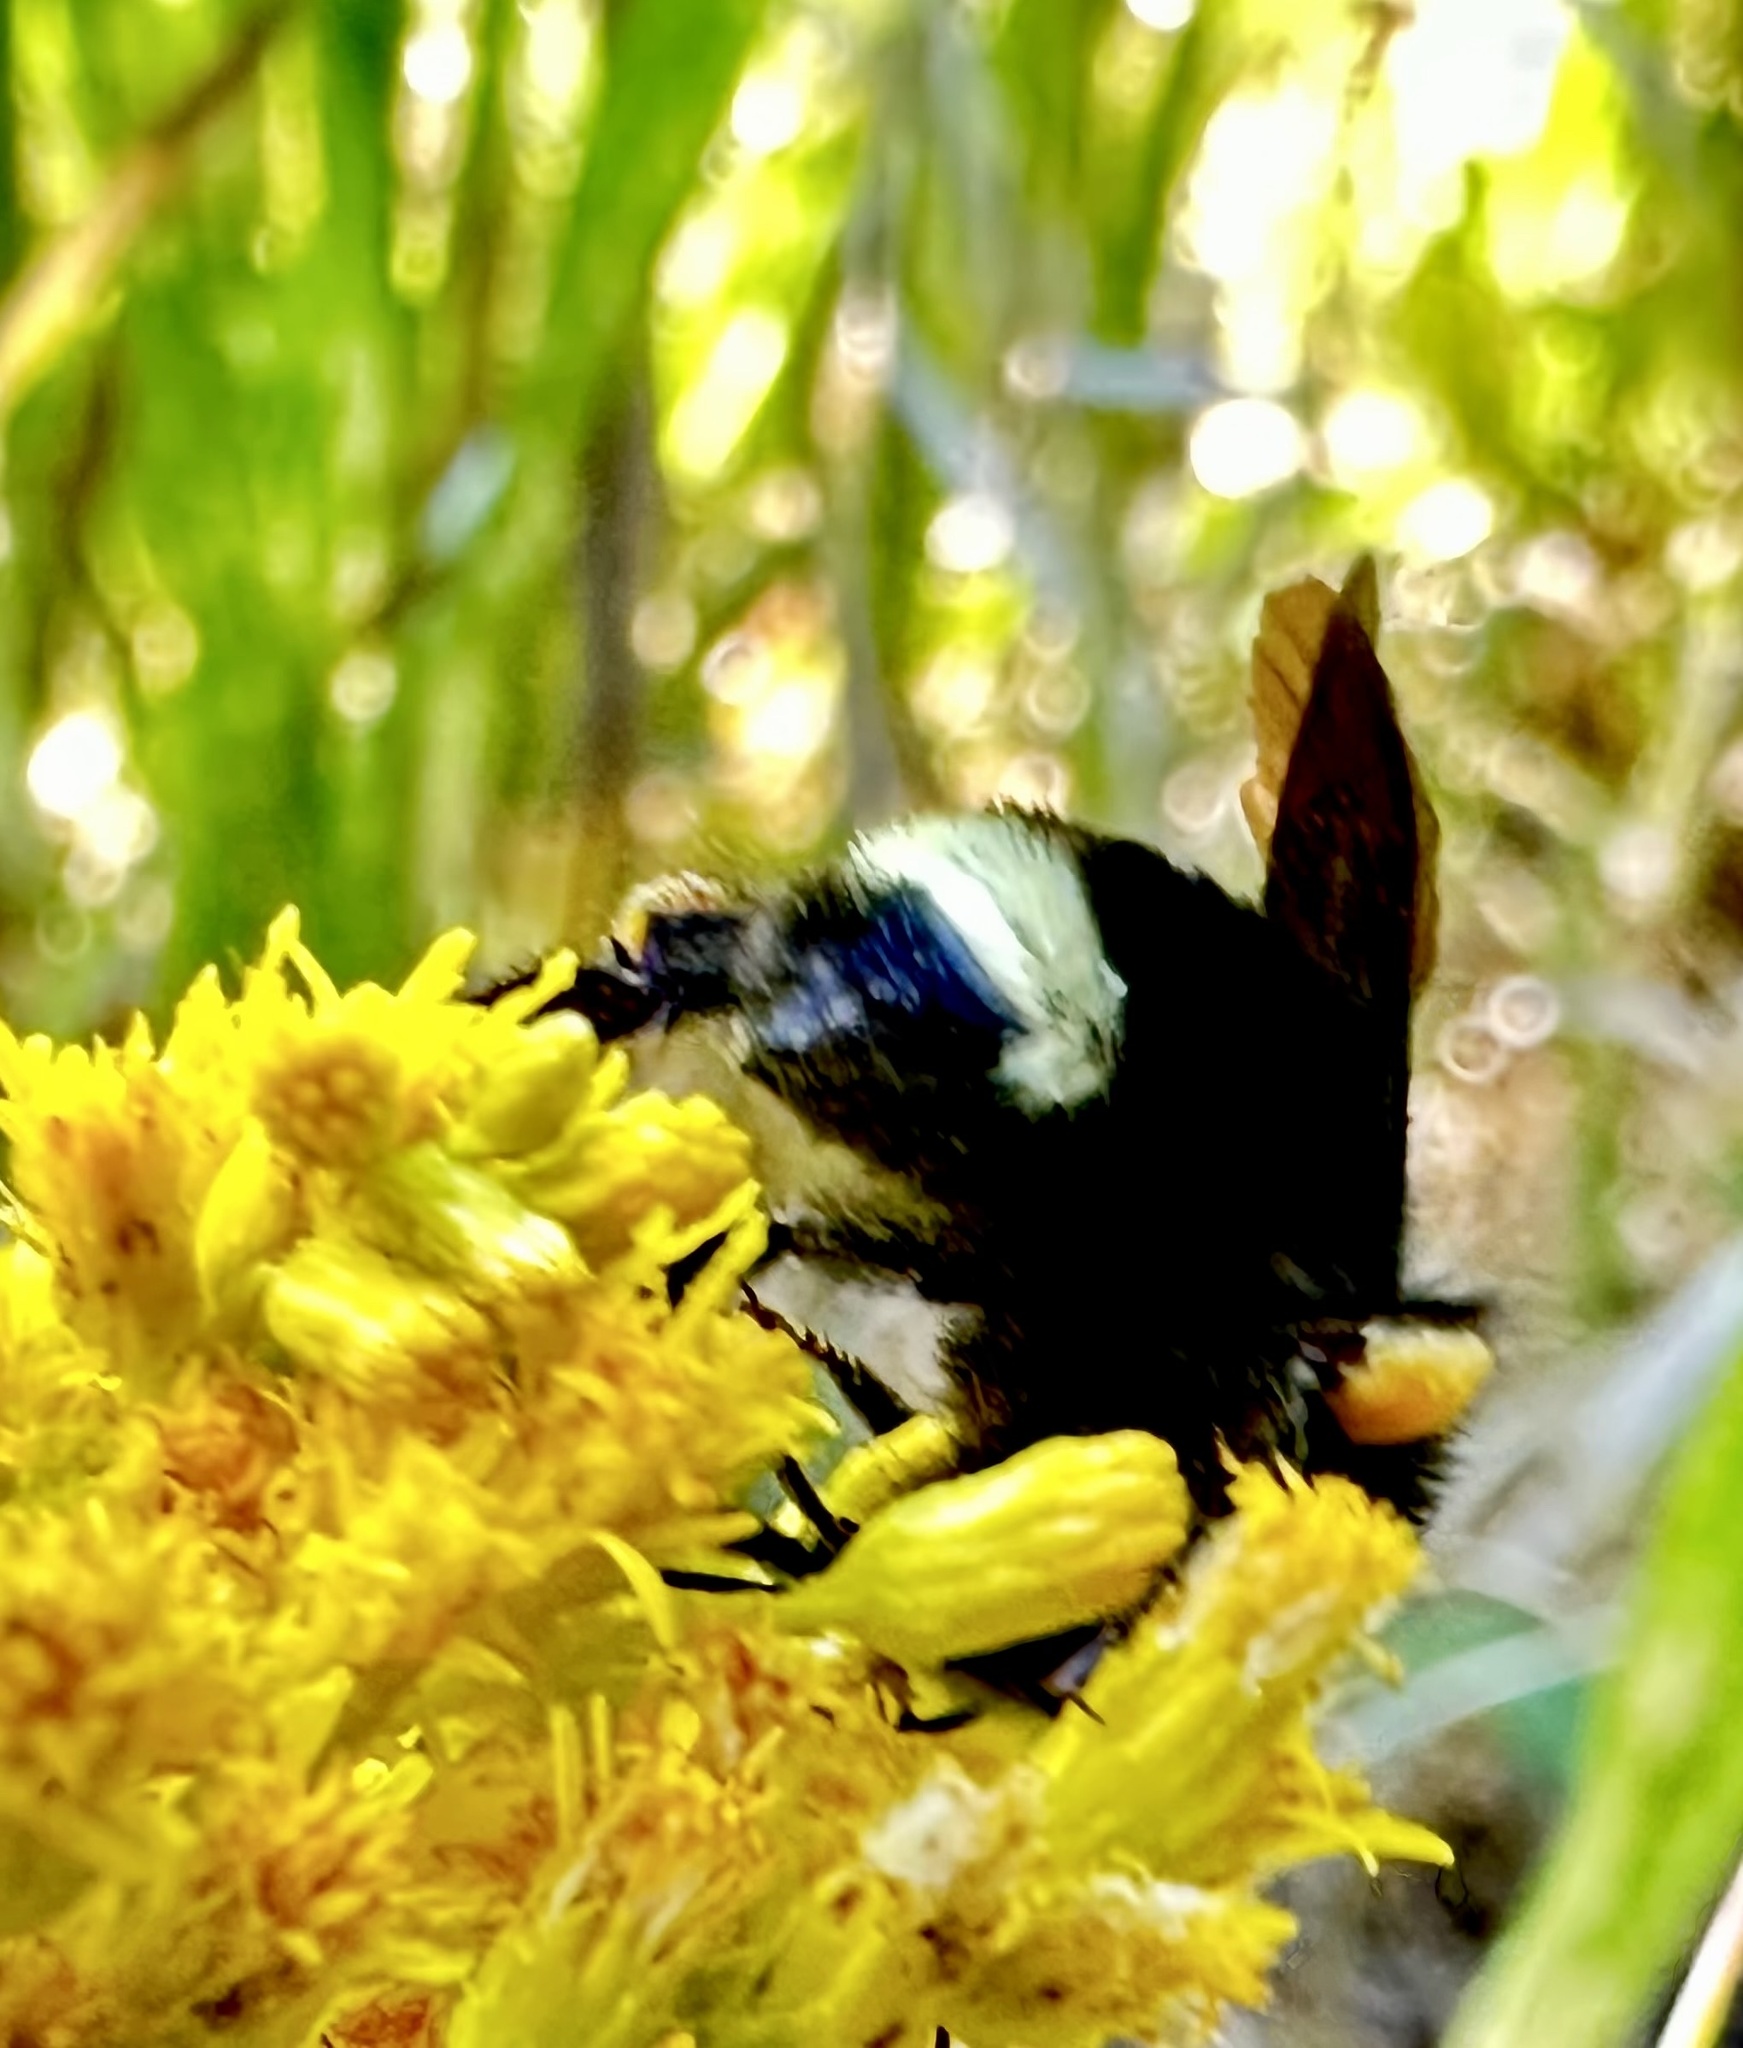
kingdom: Animalia
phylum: Arthropoda
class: Insecta
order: Hymenoptera
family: Apidae
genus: Bombus
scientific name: Bombus vosnesenskii
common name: Vosnesensky bumble bee
